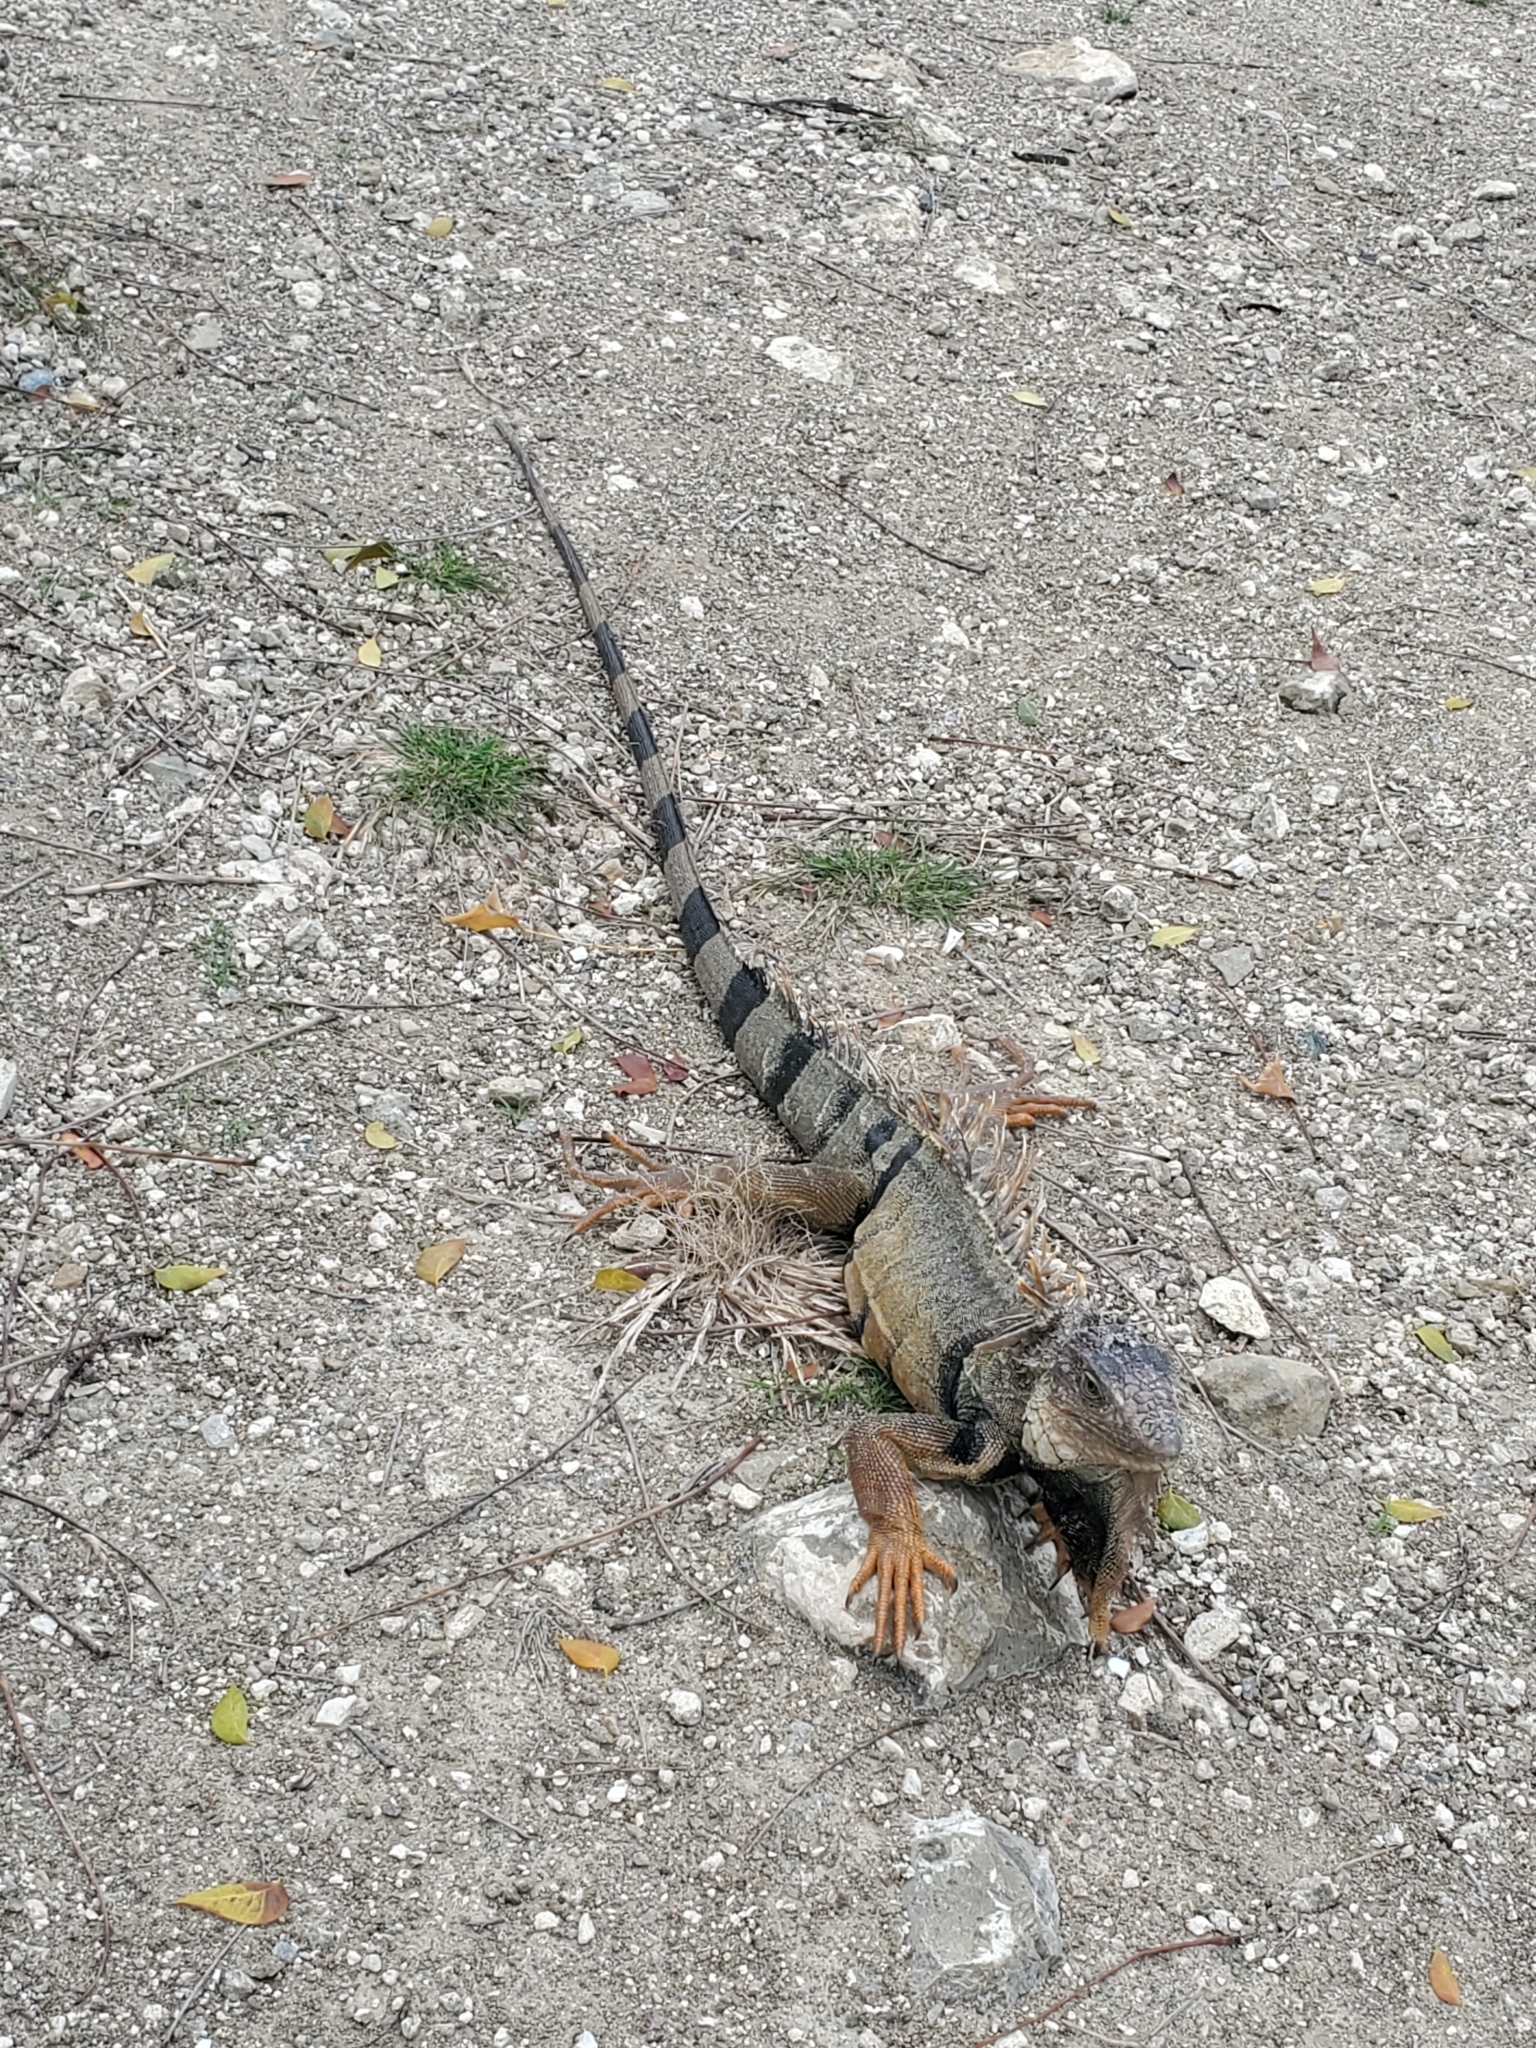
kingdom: Animalia
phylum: Chordata
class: Squamata
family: Iguanidae
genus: Iguana
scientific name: Iguana iguana
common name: Green iguana
